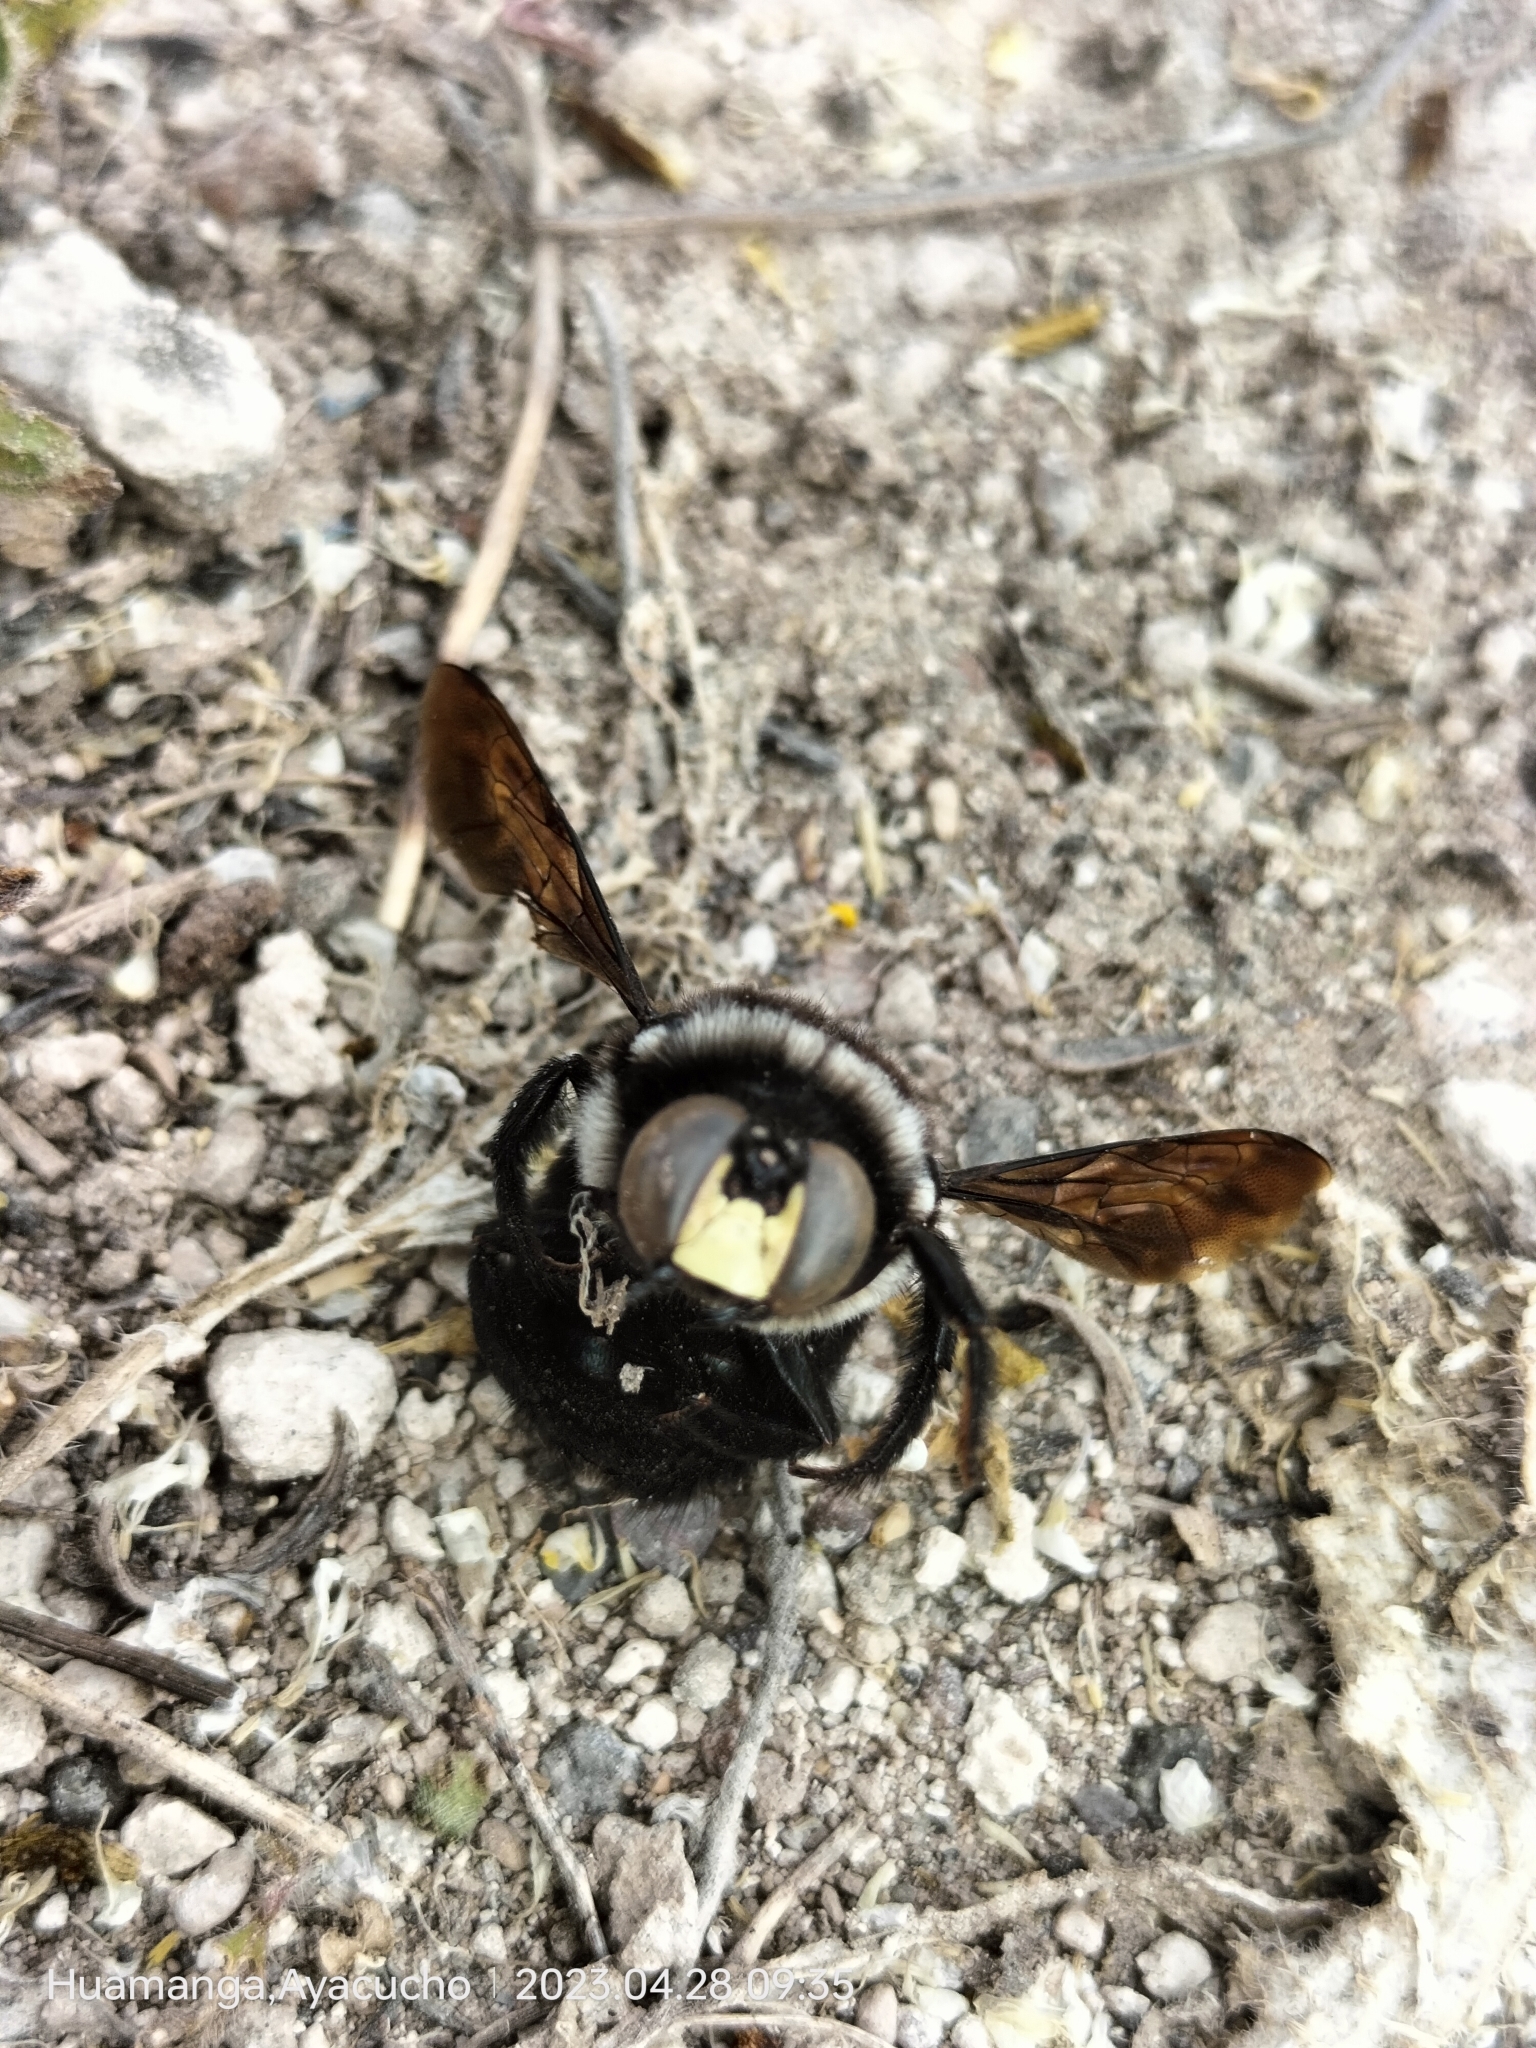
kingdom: Animalia
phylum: Arthropoda
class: Insecta
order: Hymenoptera
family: Apidae
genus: Xylocopa
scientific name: Xylocopa viridigastra
